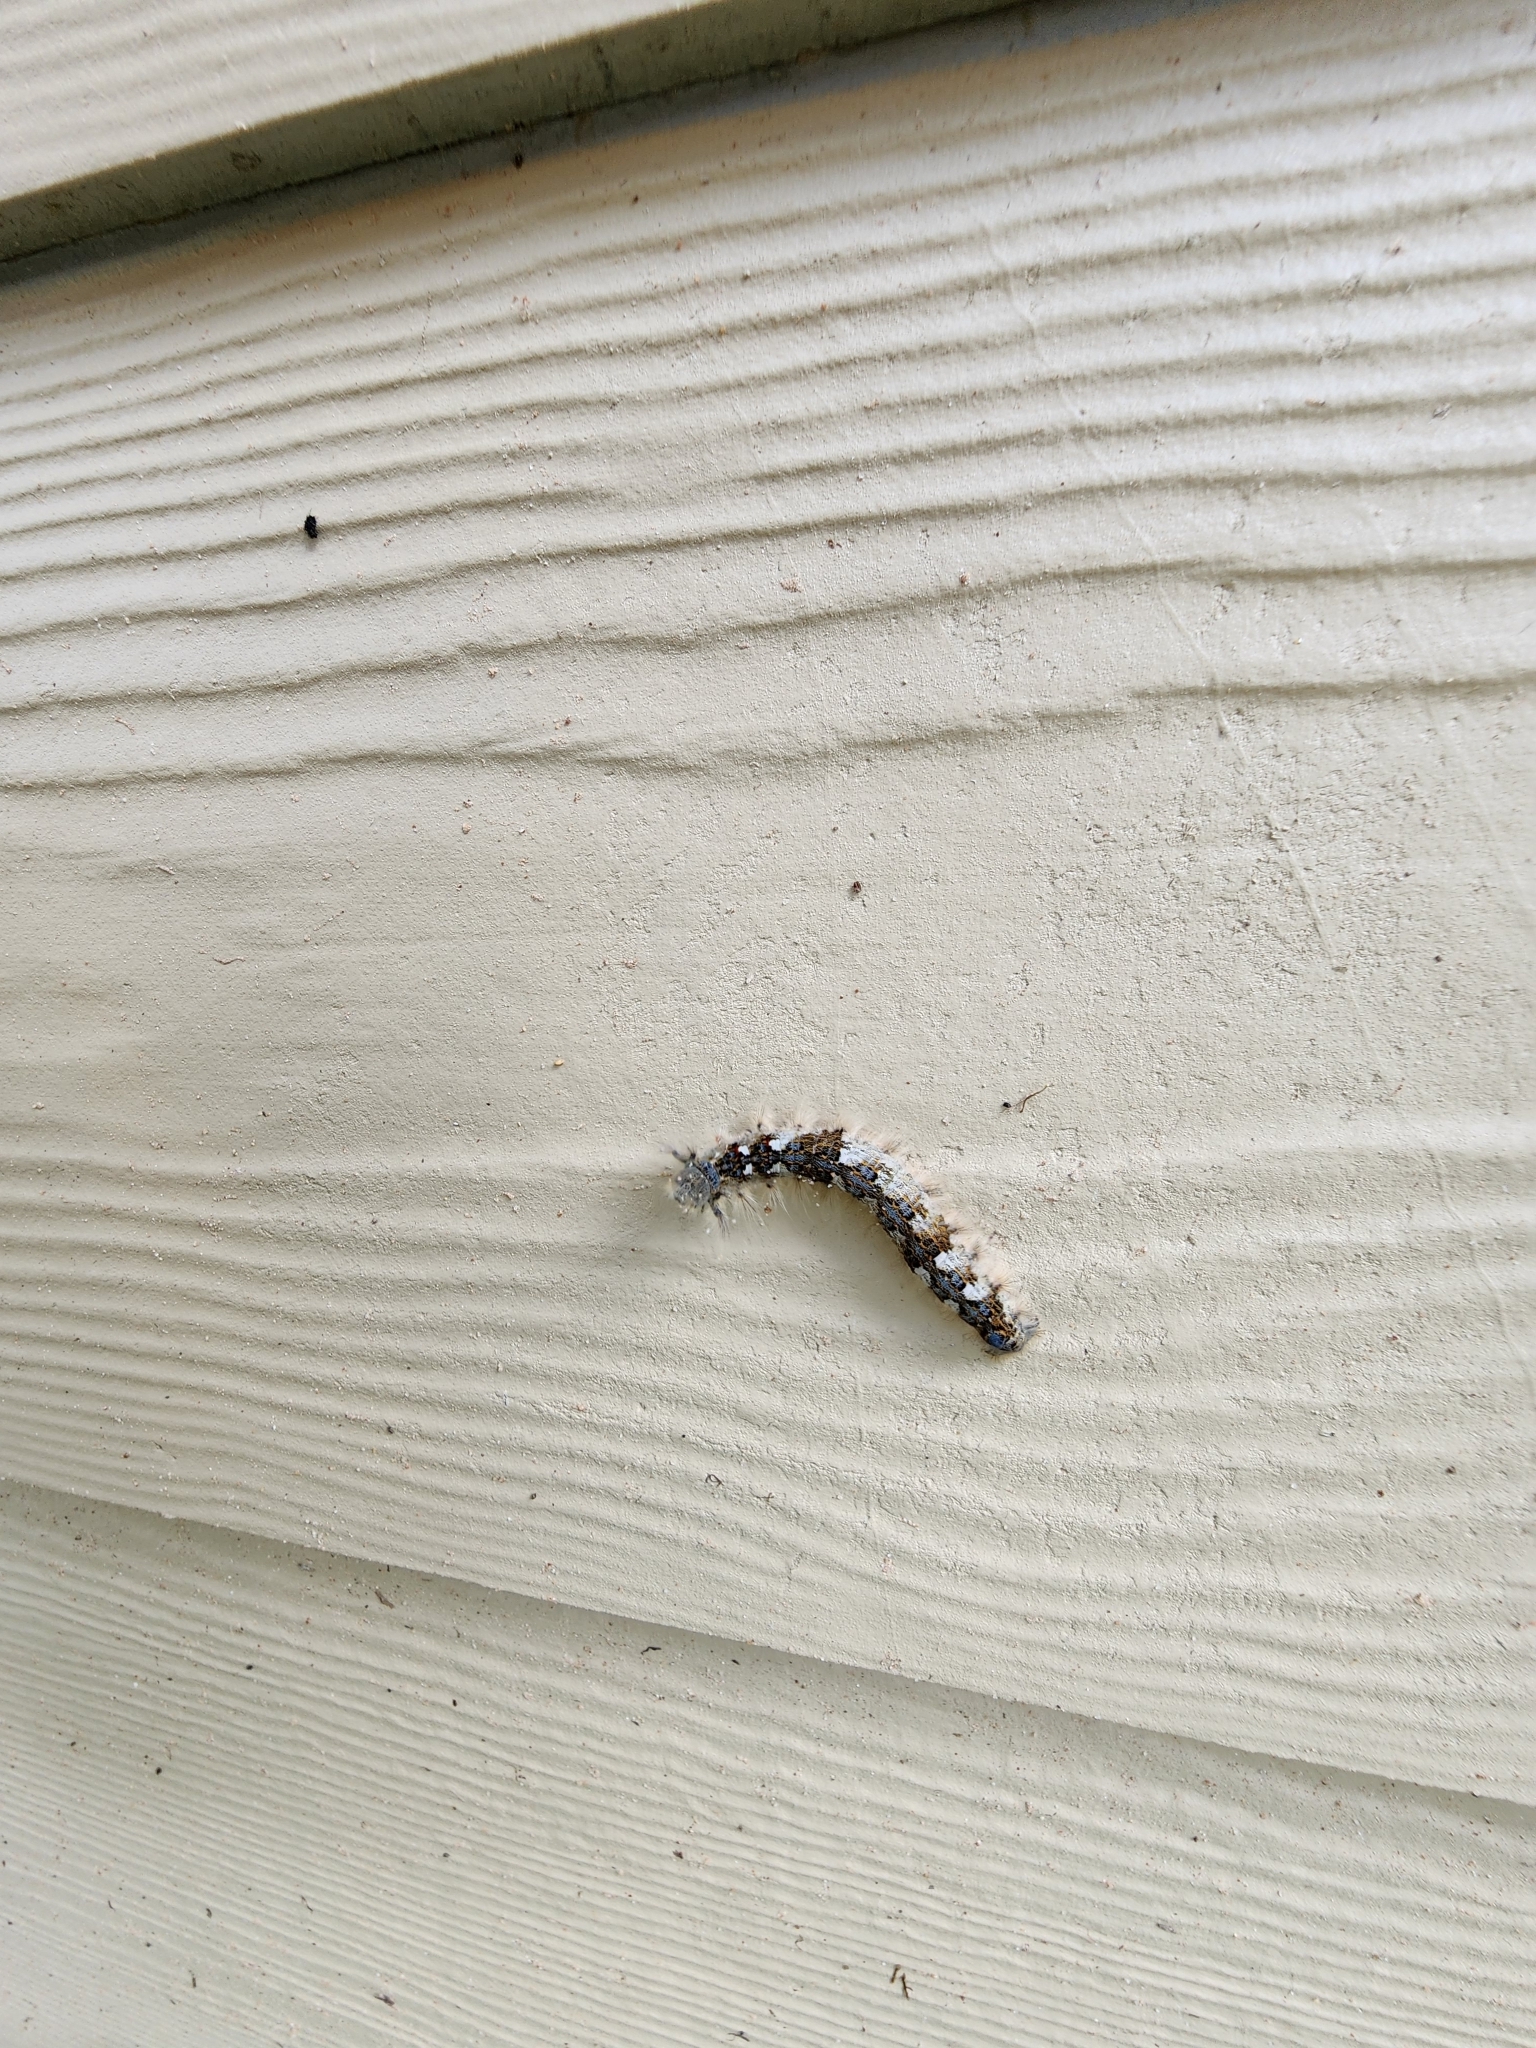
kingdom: Animalia
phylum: Arthropoda
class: Insecta
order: Lepidoptera
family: Lasiocampidae
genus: Phyllodesma
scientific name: Phyllodesma americana
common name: American lappet moth
